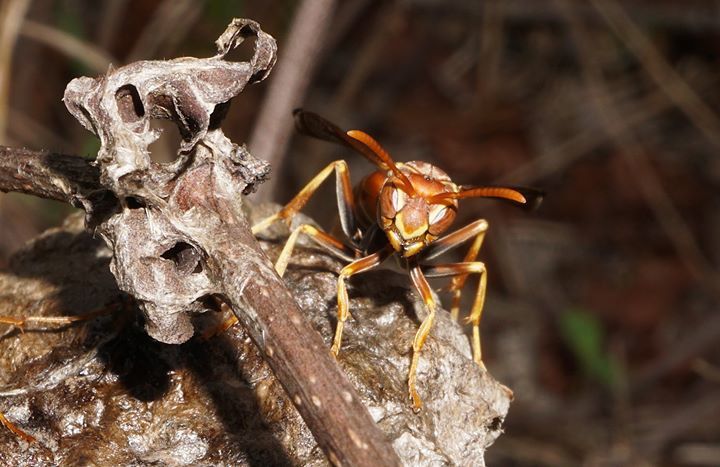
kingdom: Animalia
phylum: Arthropoda
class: Insecta
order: Hymenoptera
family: Eumenidae
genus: Polistes
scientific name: Polistes dorsalis
